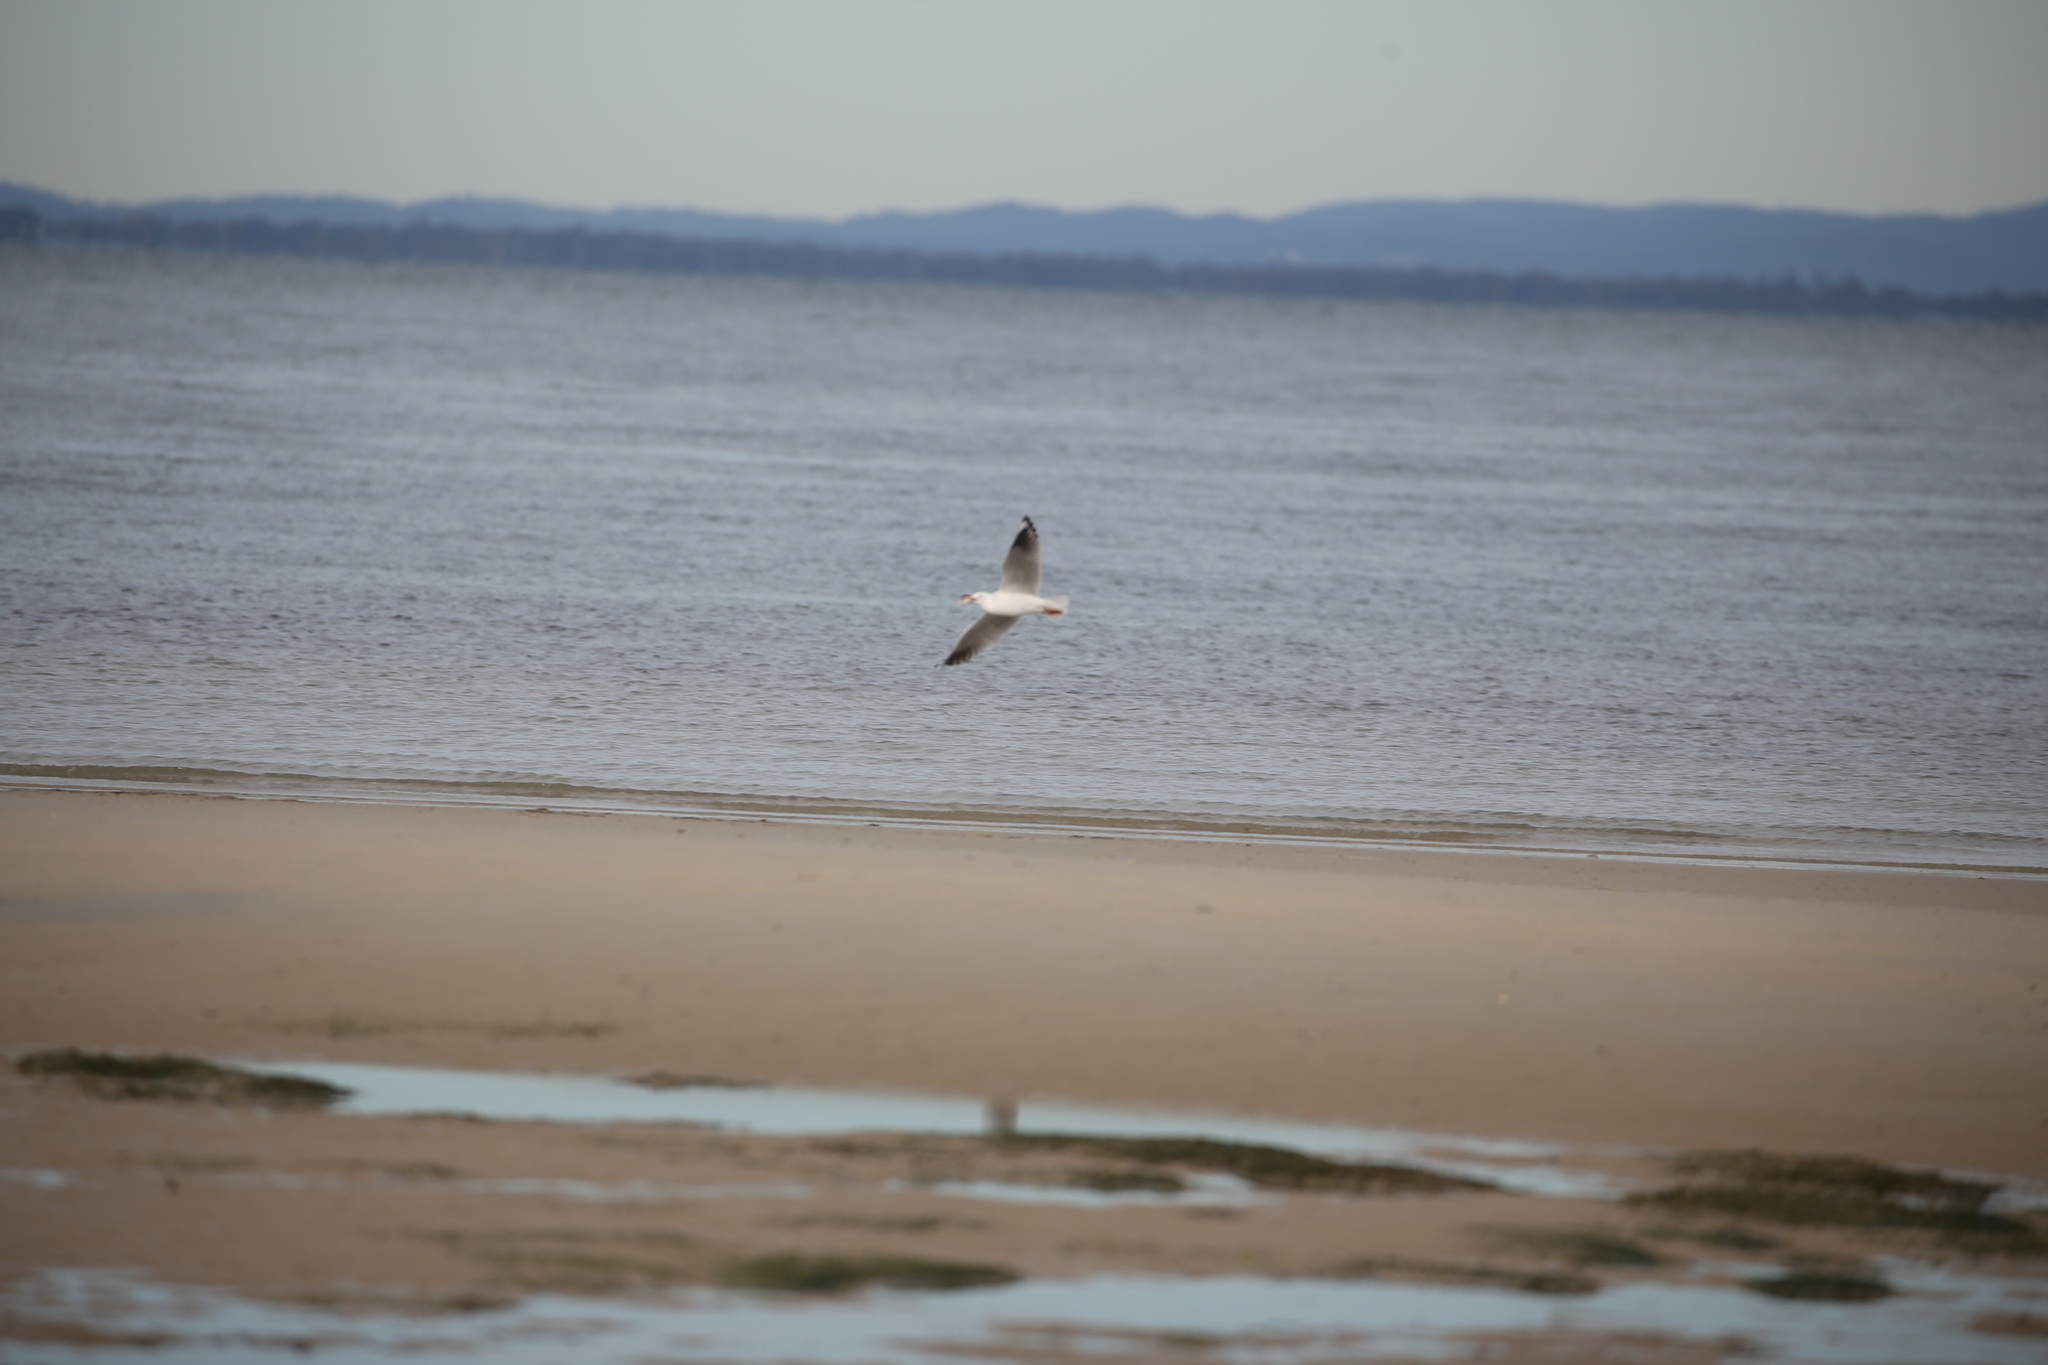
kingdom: Animalia
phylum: Chordata
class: Aves
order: Charadriiformes
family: Laridae
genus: Chroicocephalus
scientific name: Chroicocephalus novaehollandiae
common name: Silver gull
